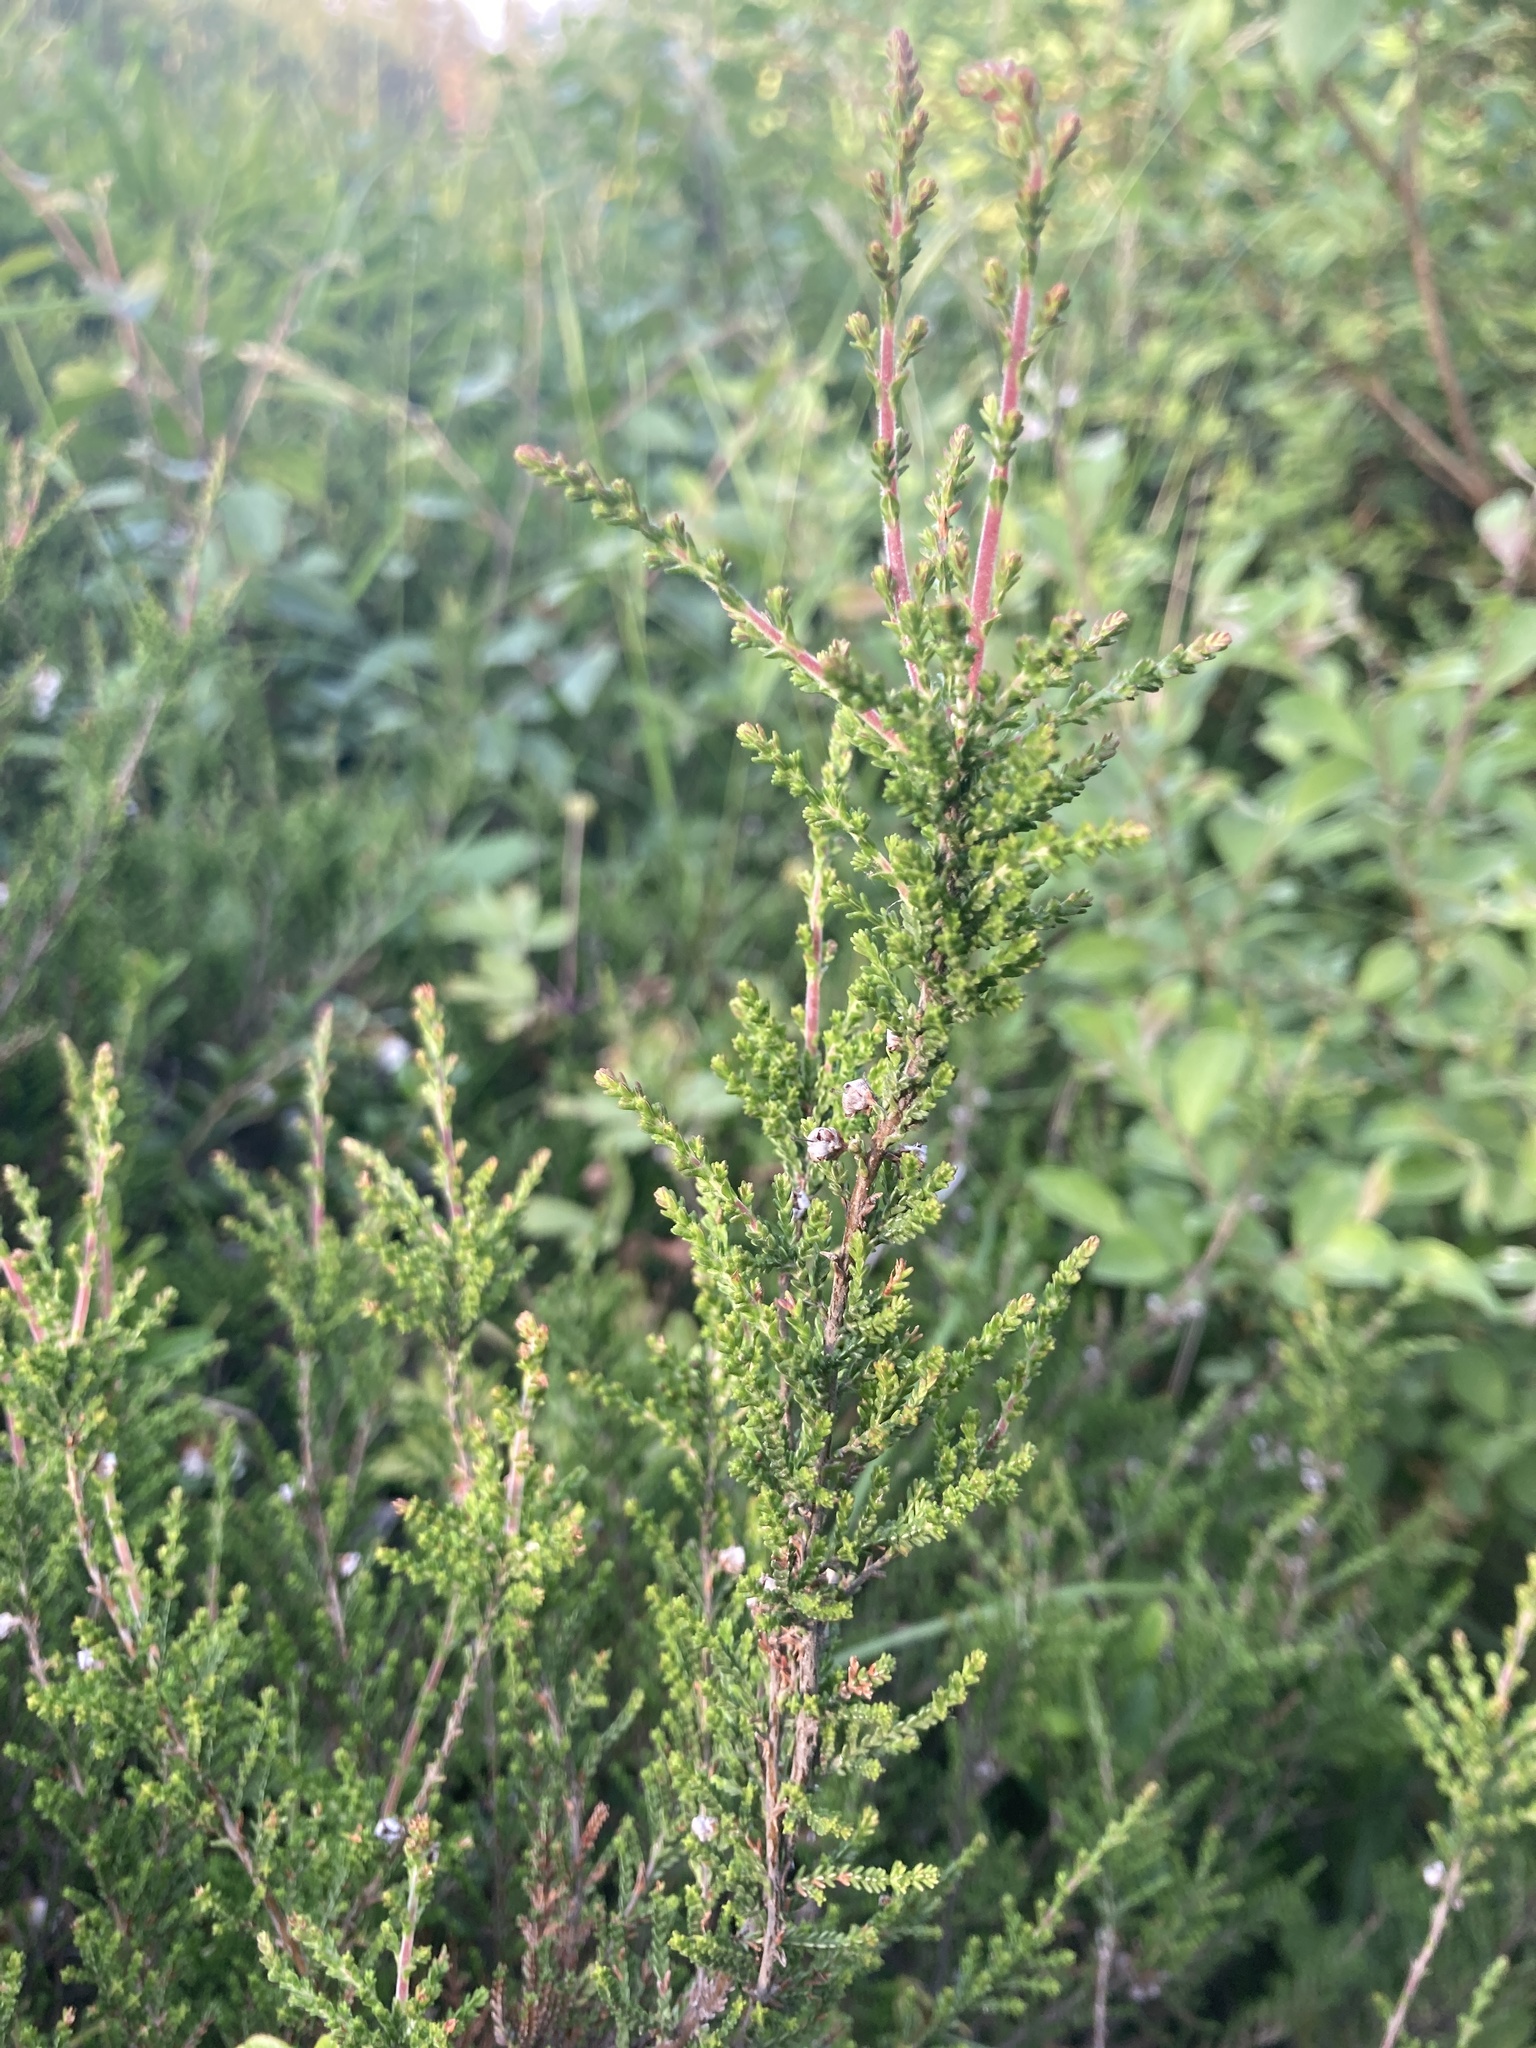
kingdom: Plantae
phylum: Tracheophyta
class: Magnoliopsida
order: Ericales
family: Ericaceae
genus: Calluna
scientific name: Calluna vulgaris
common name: Heather
